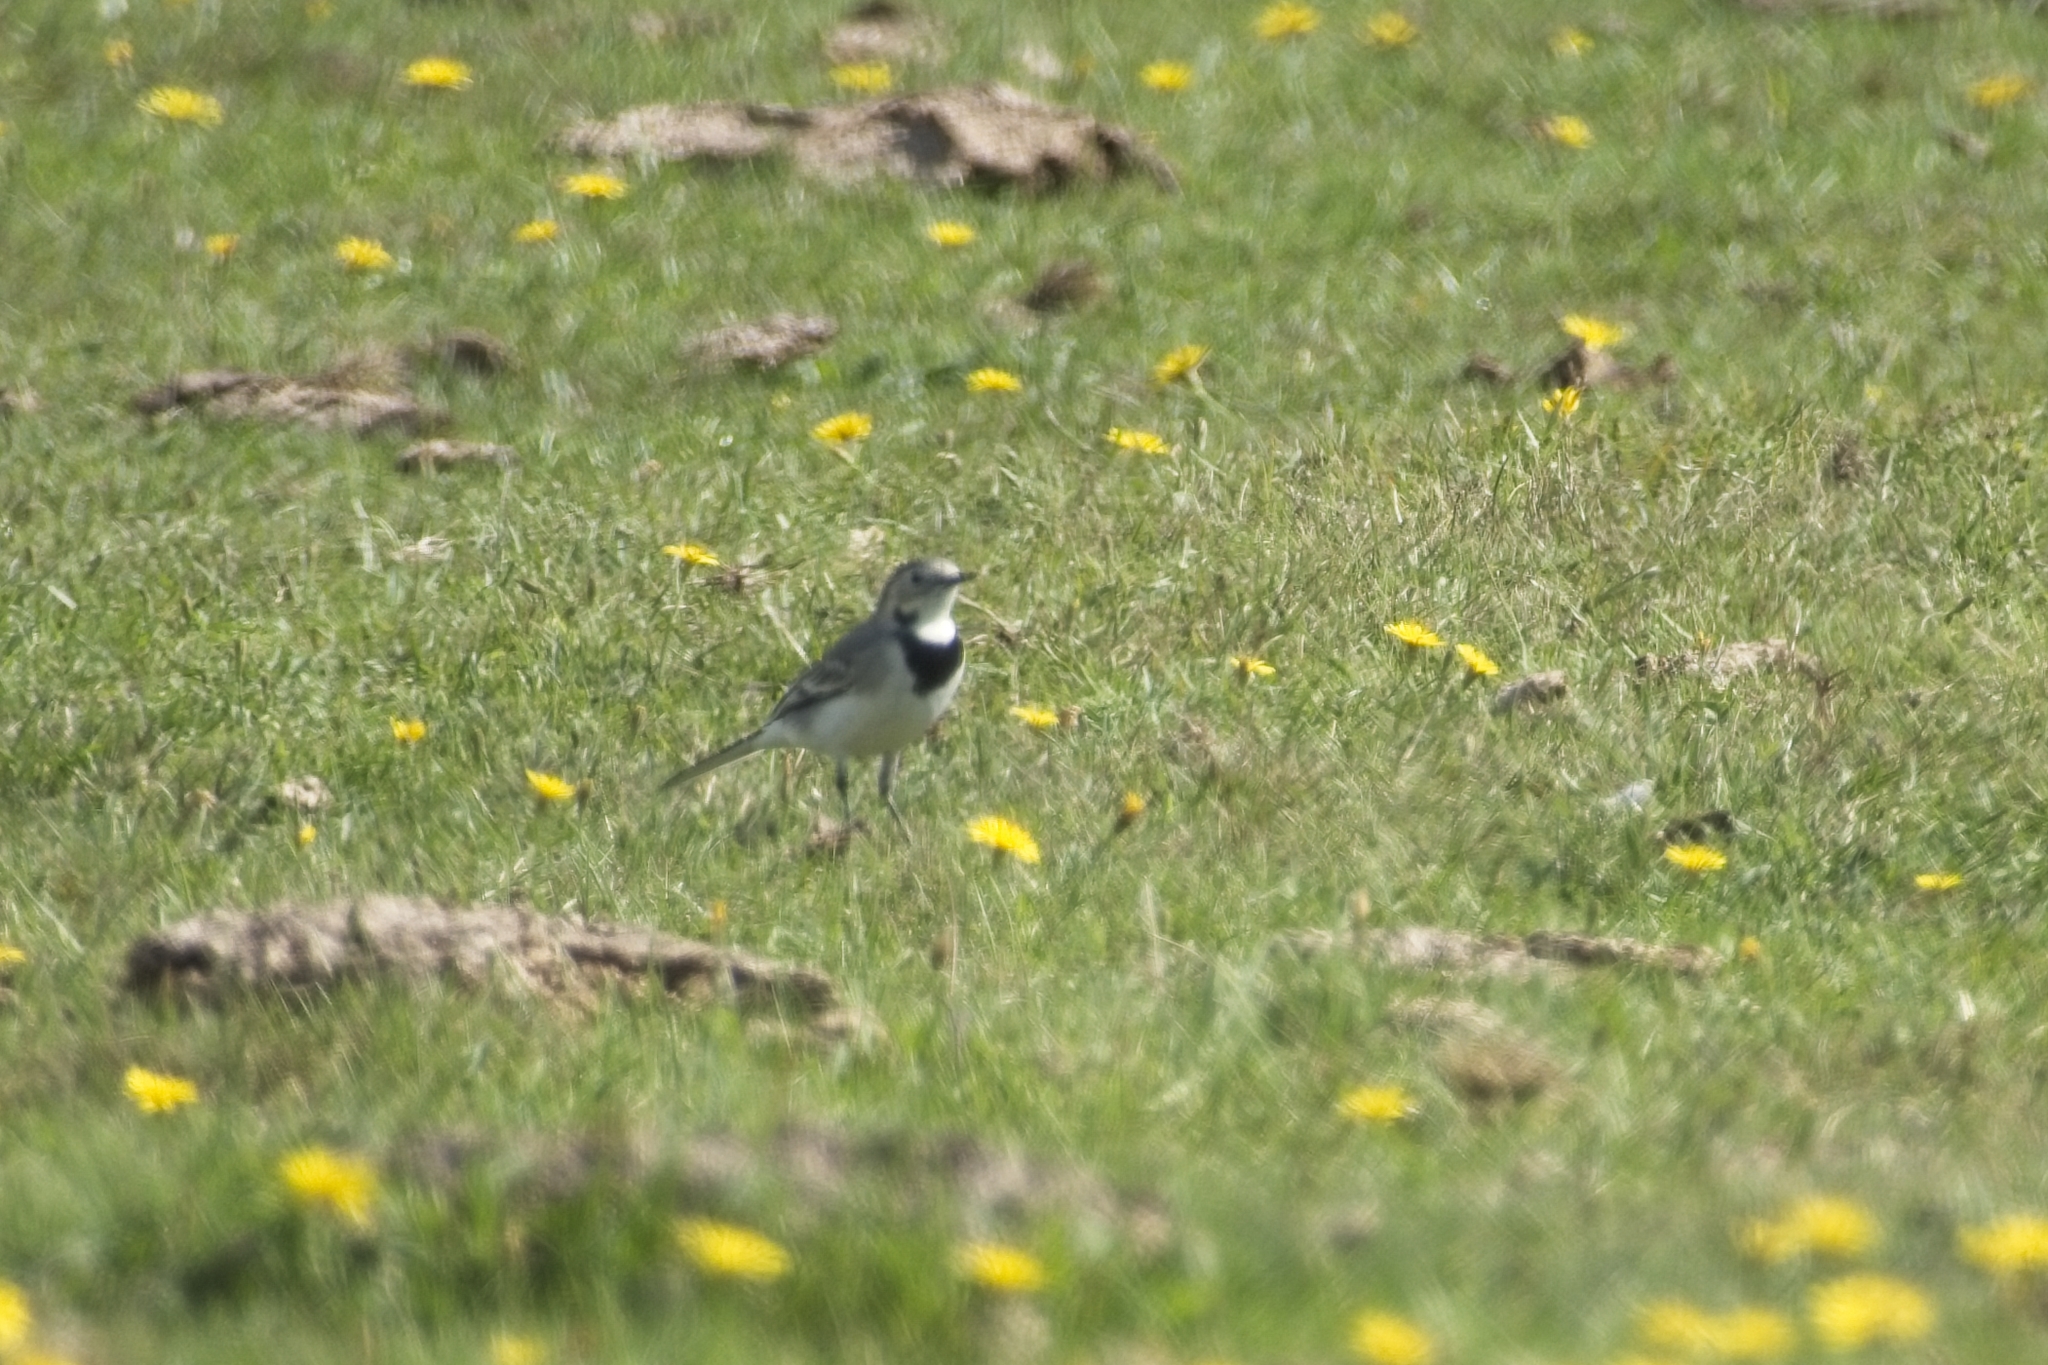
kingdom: Animalia
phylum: Chordata
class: Aves
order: Passeriformes
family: Motacillidae
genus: Motacilla
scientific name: Motacilla alba
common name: White wagtail
